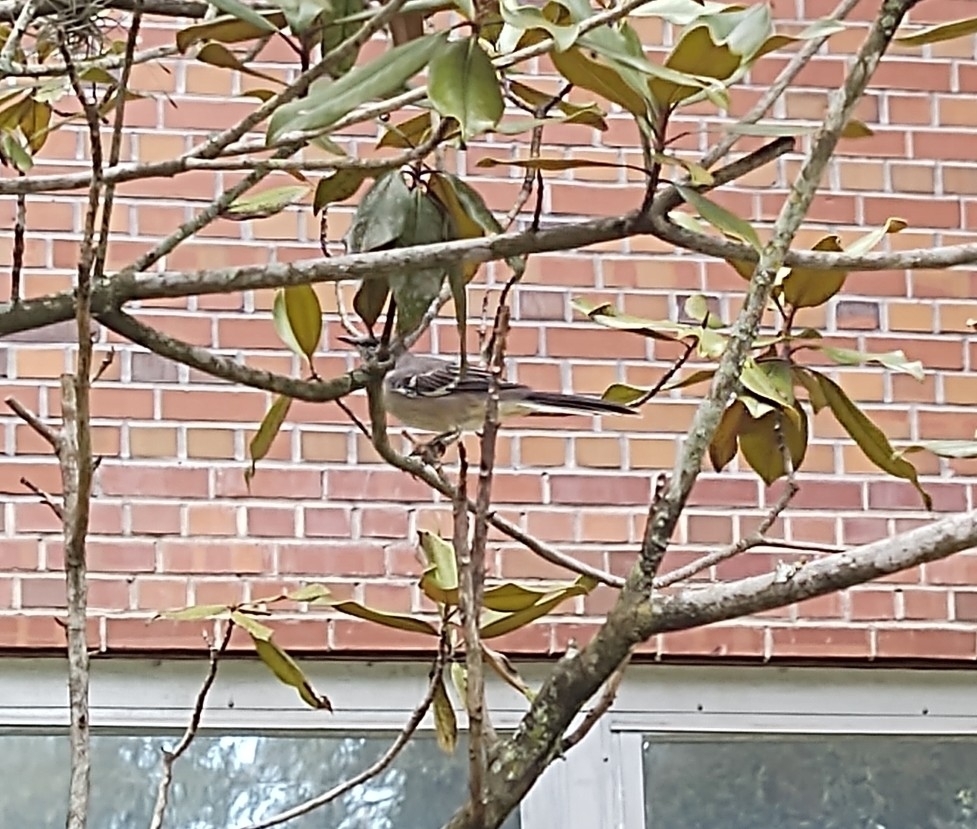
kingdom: Animalia
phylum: Chordata
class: Aves
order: Passeriformes
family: Mimidae
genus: Mimus
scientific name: Mimus polyglottos
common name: Northern mockingbird
